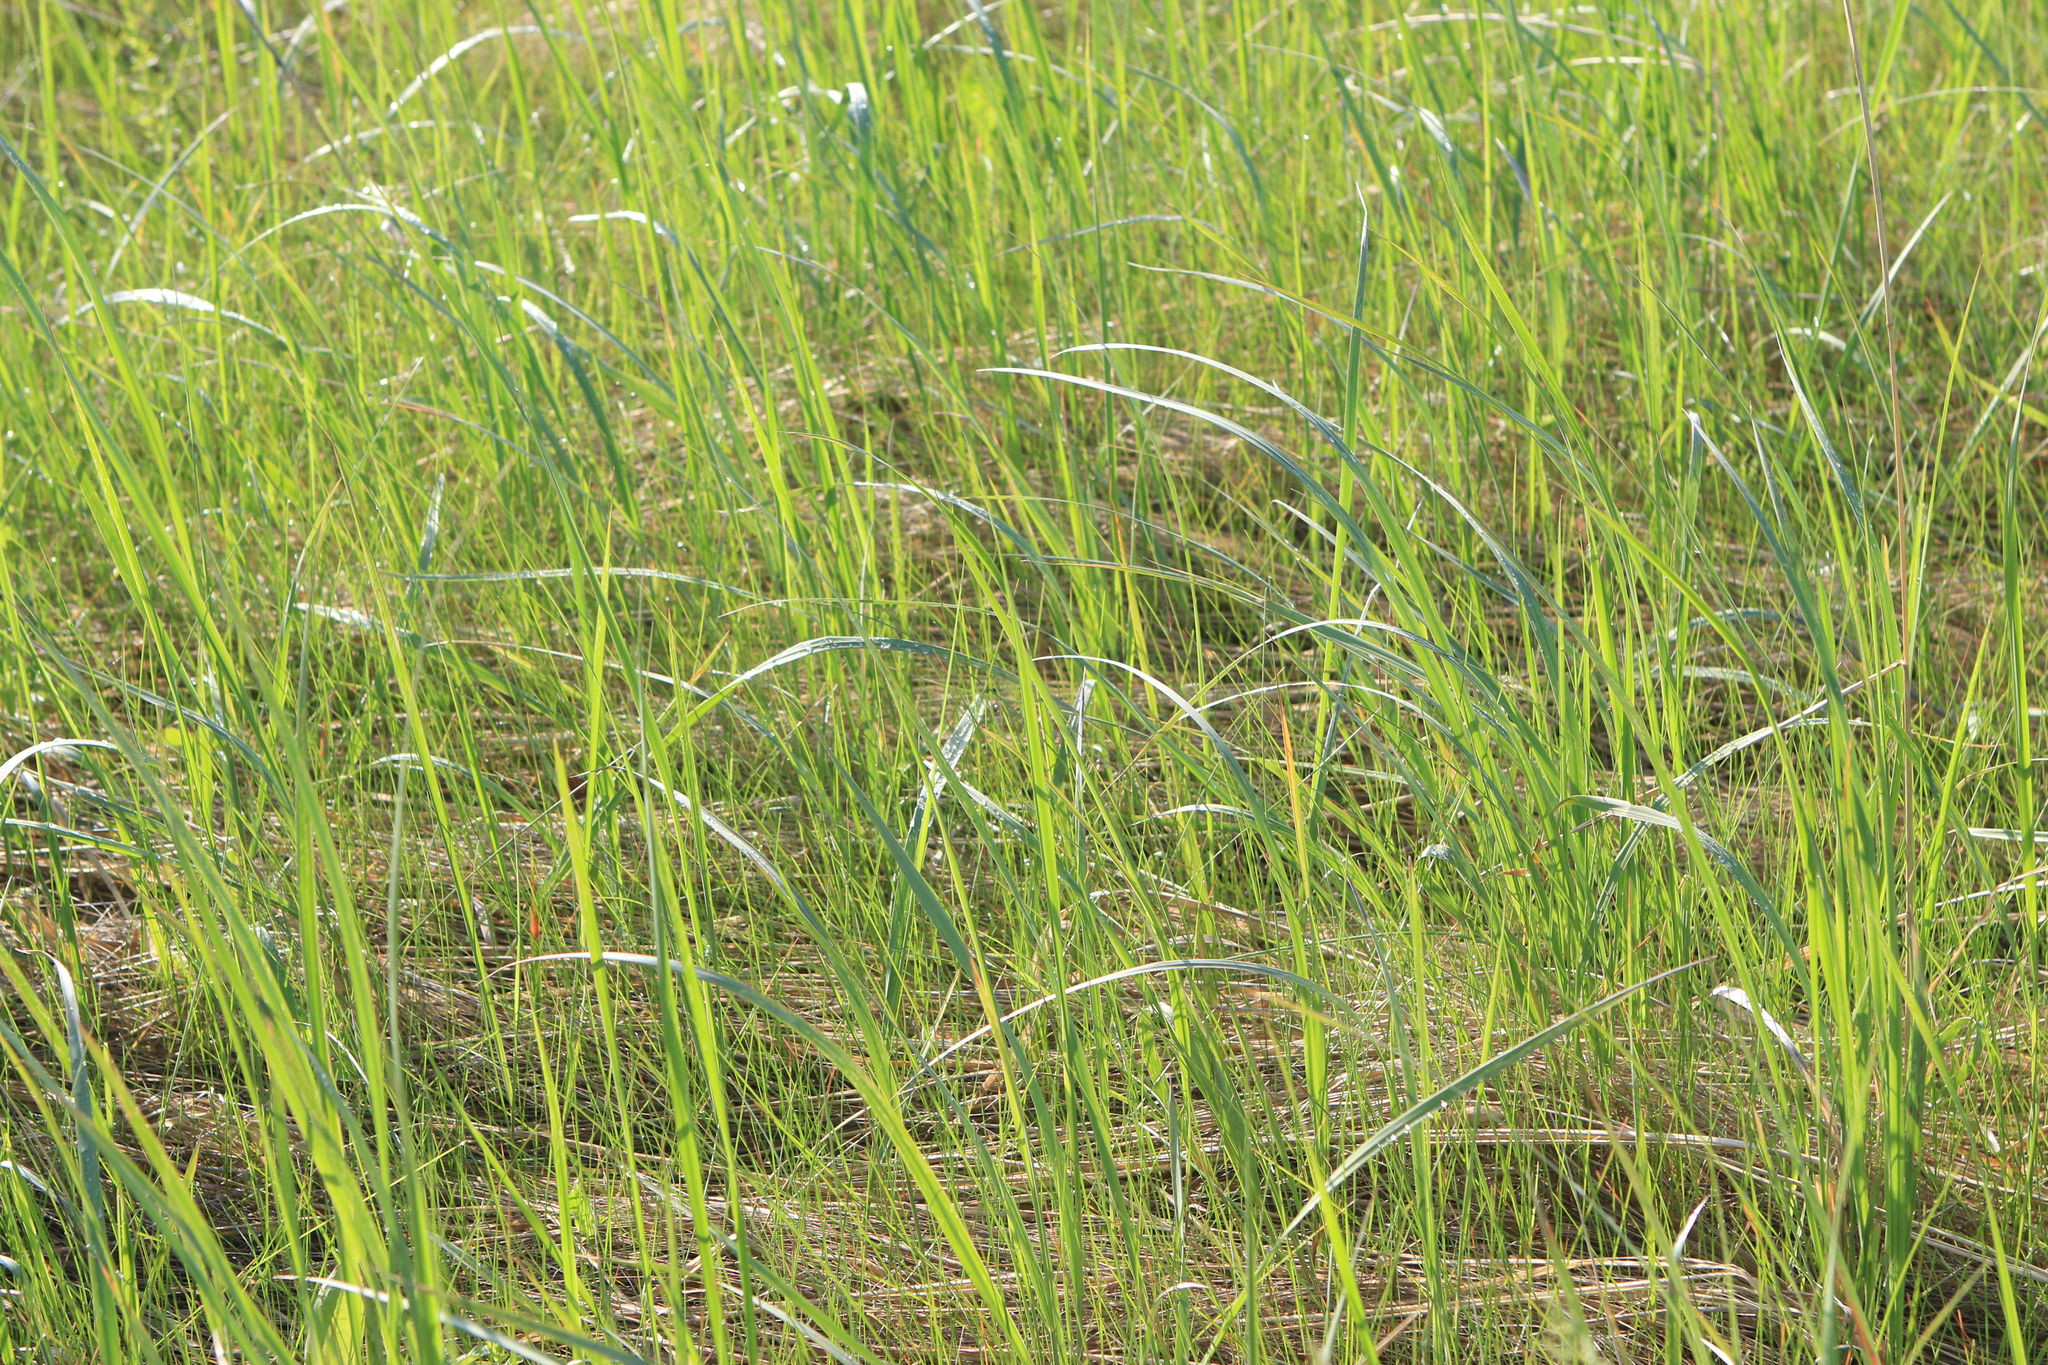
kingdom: Plantae
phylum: Tracheophyta
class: Liliopsida
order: Poales
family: Poaceae
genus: Calamagrostis
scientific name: Calamagrostis epigejos
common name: Wood small-reed
